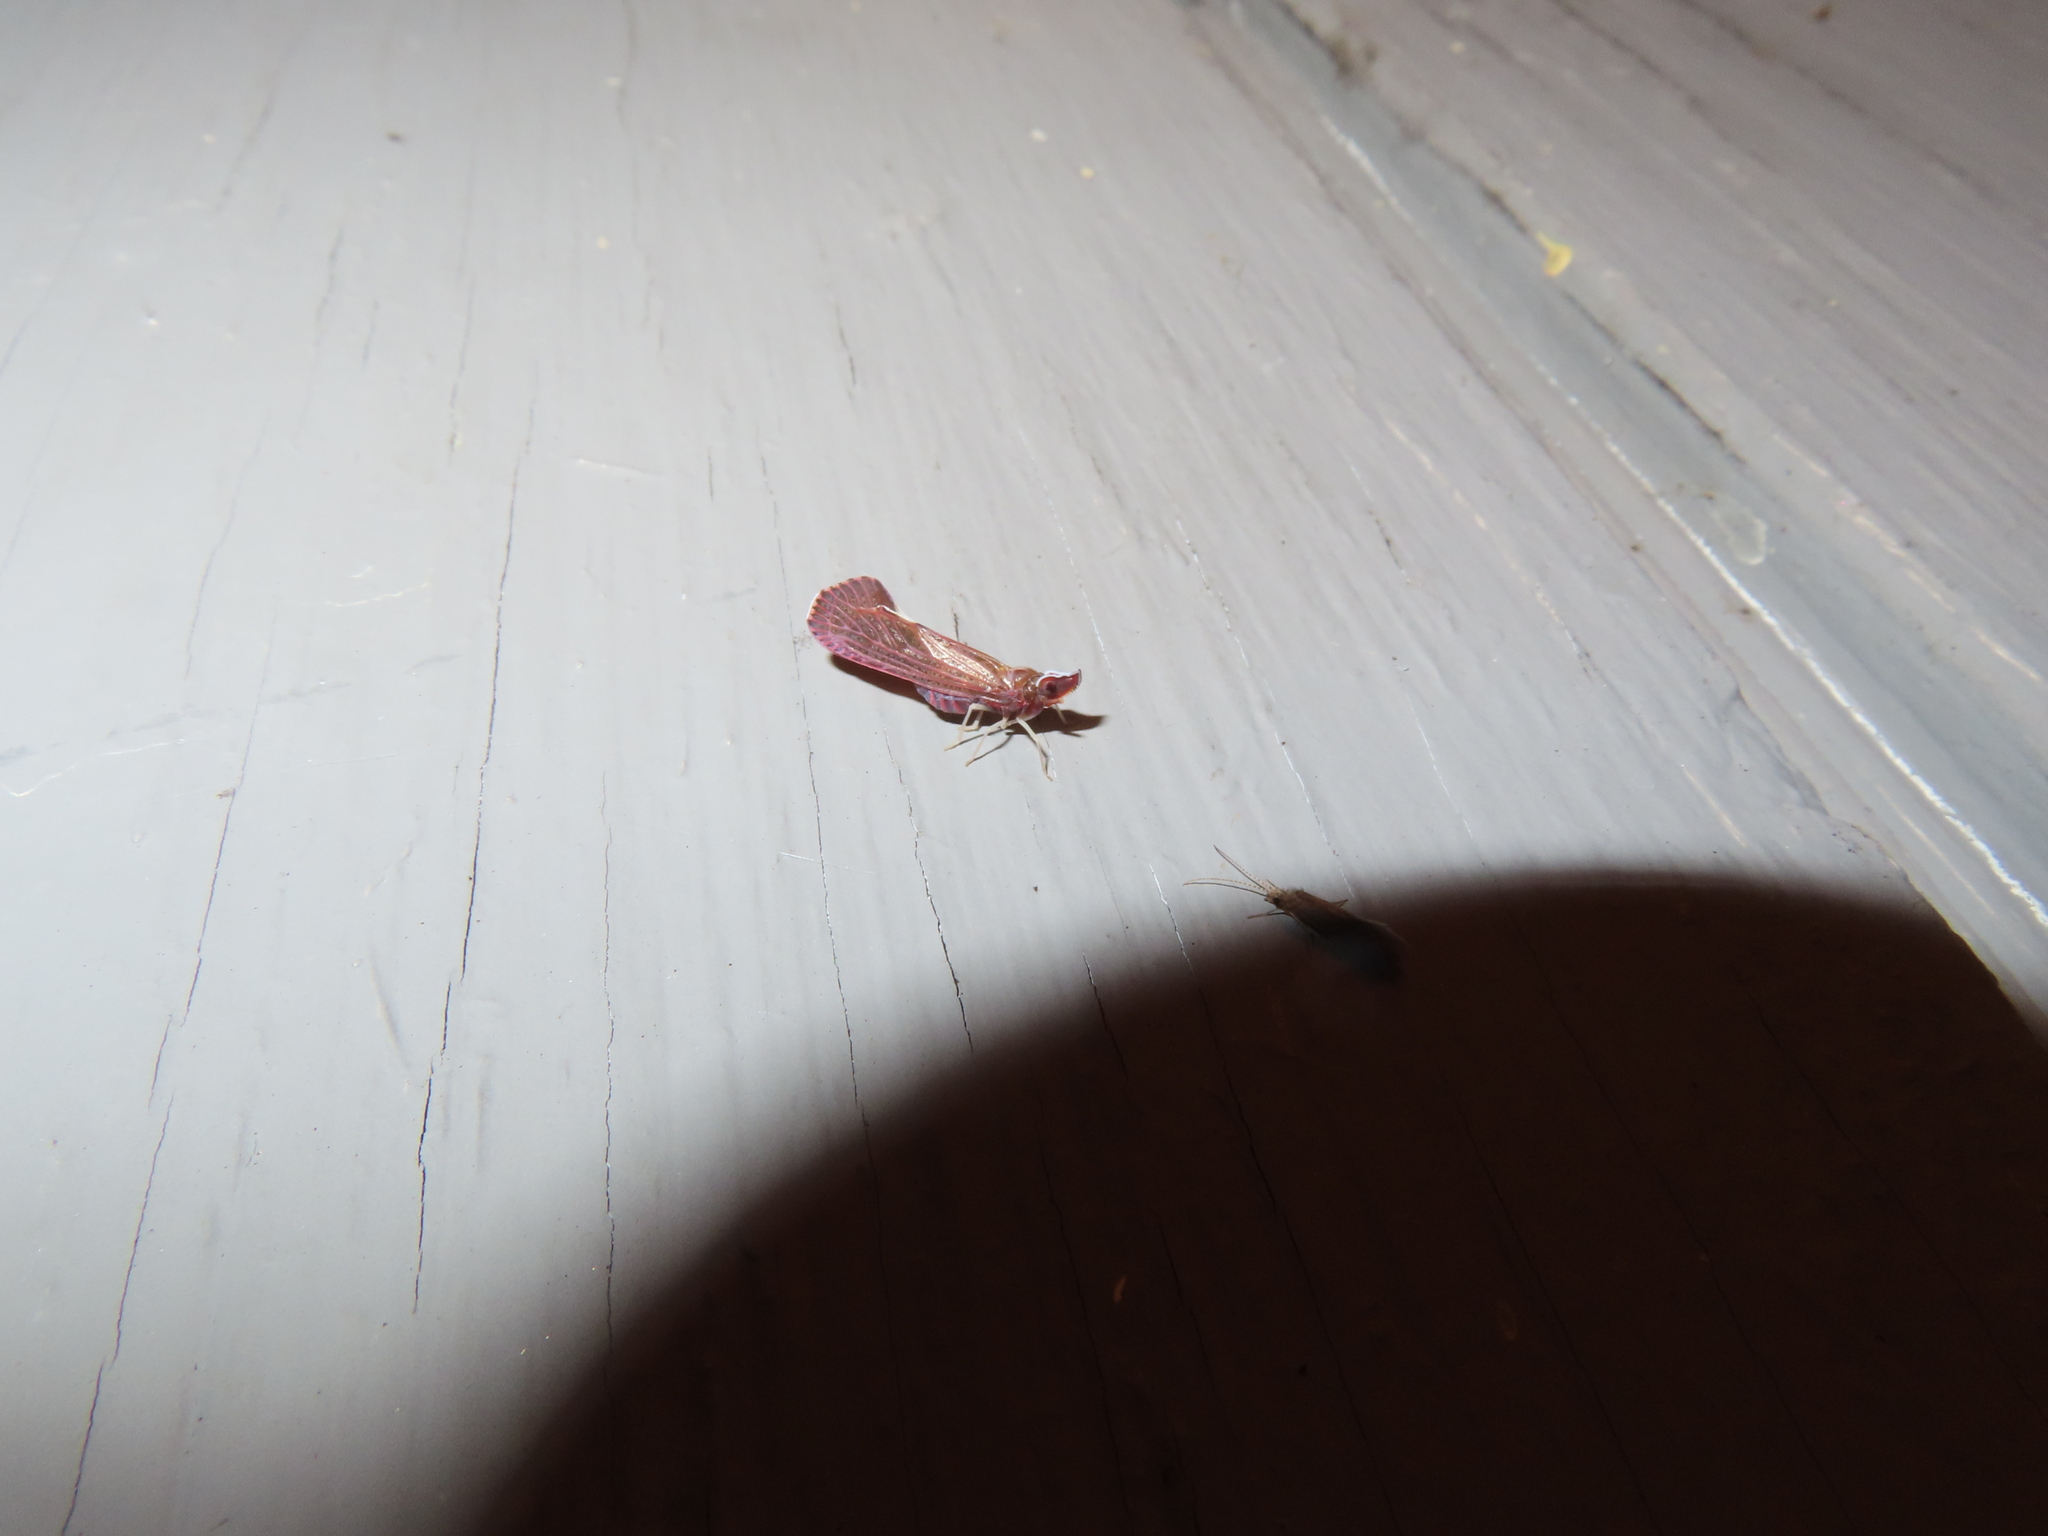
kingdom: Animalia
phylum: Arthropoda
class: Insecta
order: Hemiptera
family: Derbidae
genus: Apache
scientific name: Apache degeeri
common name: Red-fanned planthopper
